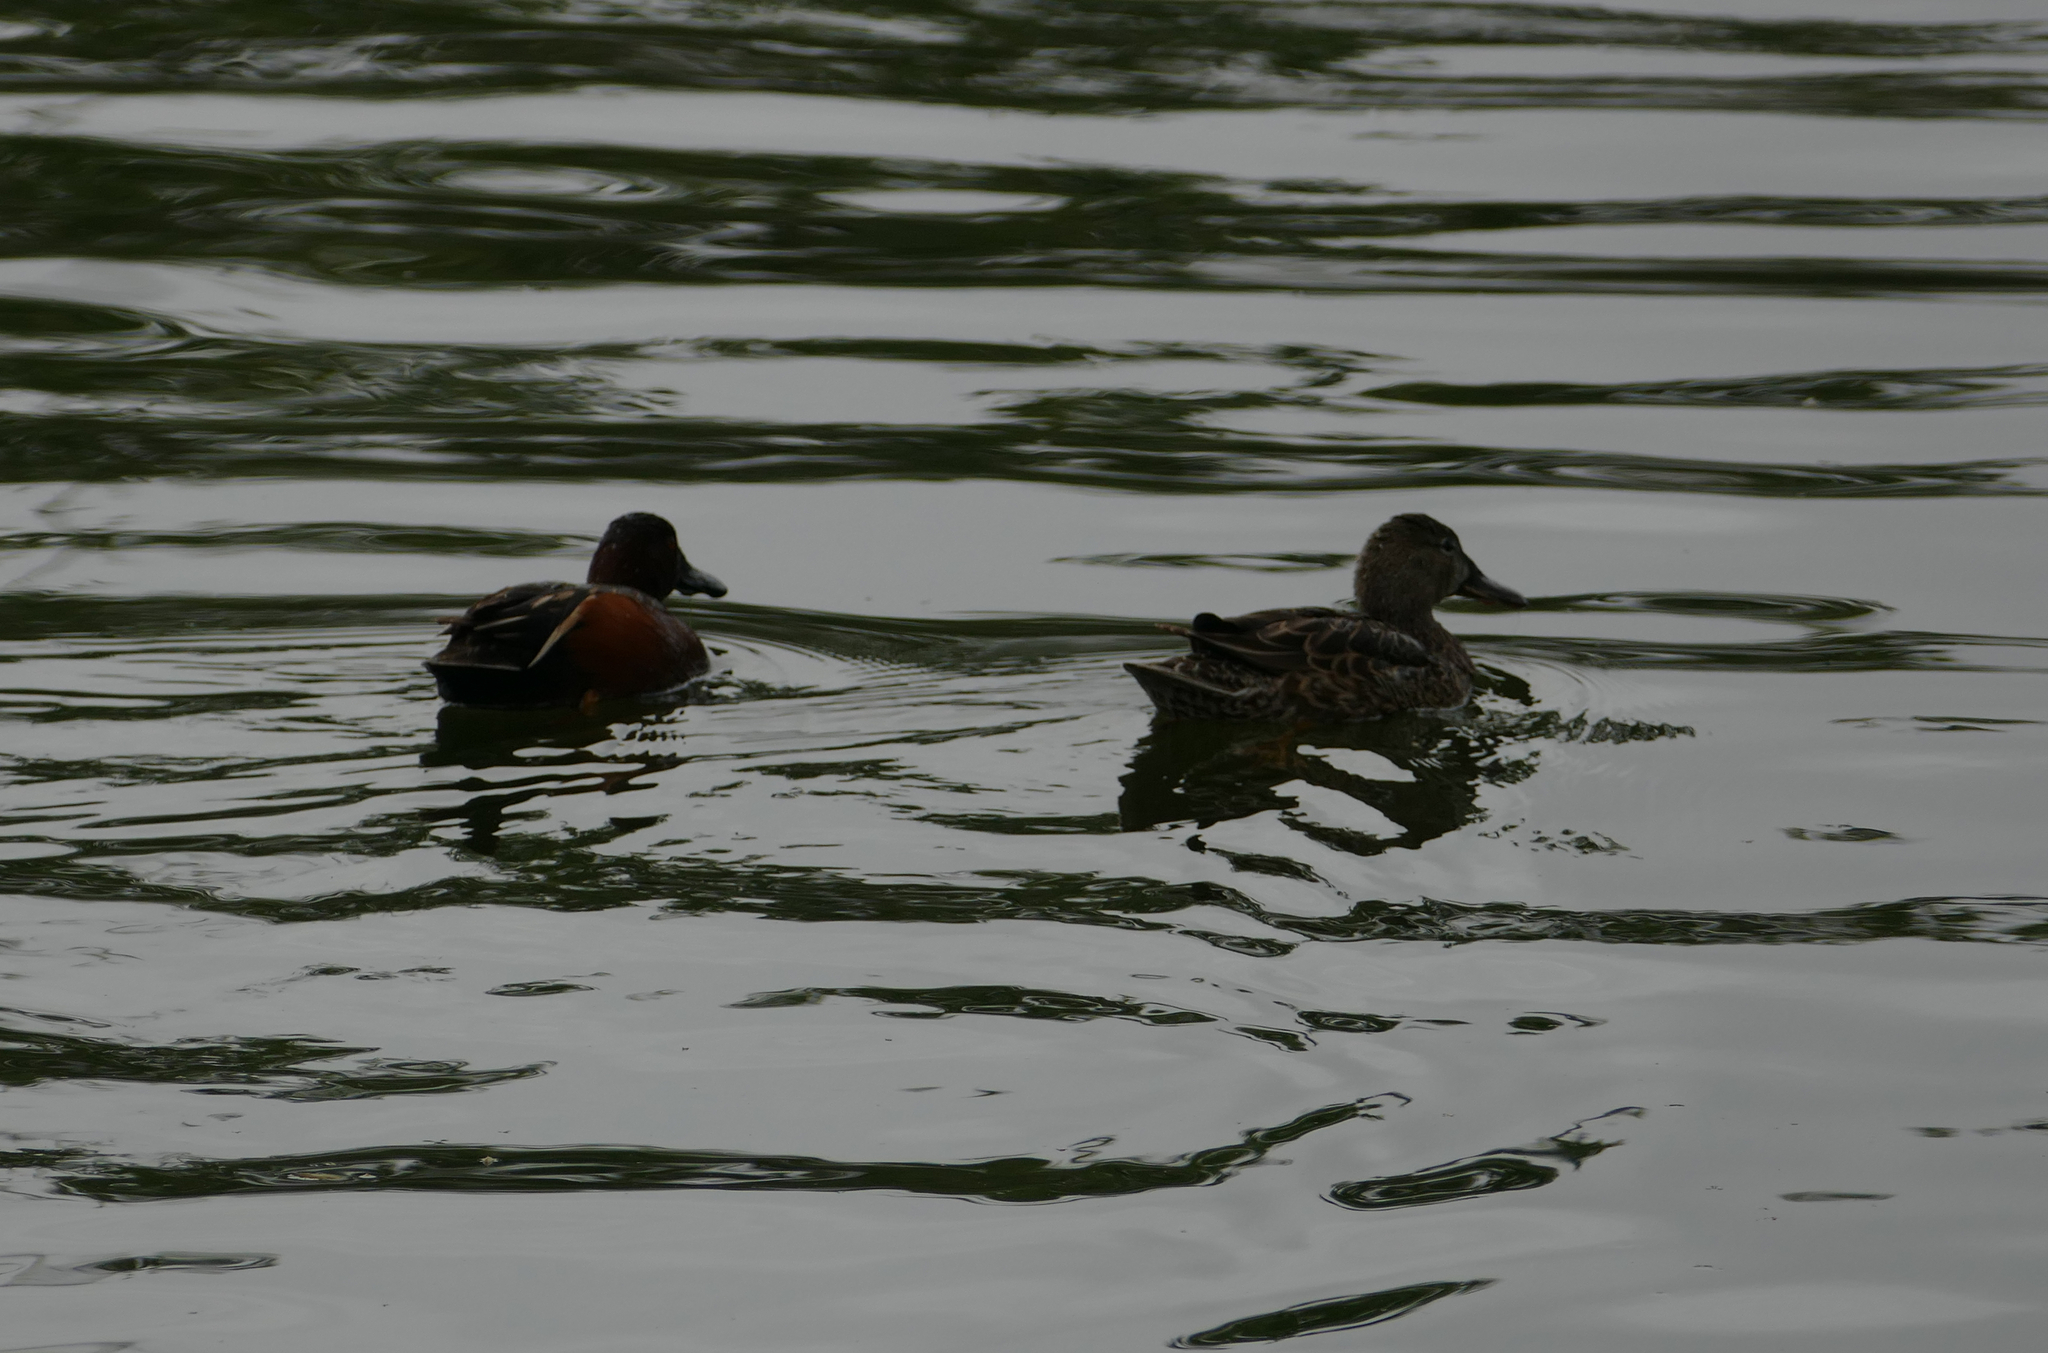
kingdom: Animalia
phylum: Chordata
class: Aves
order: Anseriformes
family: Anatidae
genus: Spatula
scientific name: Spatula cyanoptera
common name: Cinnamon teal
